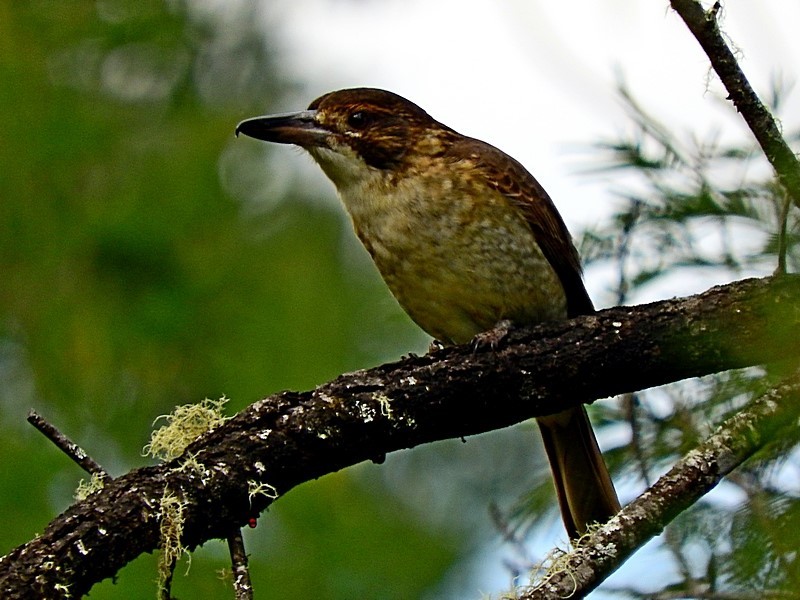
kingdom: Animalia
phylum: Chordata
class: Aves
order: Passeriformes
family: Cracticidae
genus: Cracticus
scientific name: Cracticus torquatus
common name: Grey butcherbird
